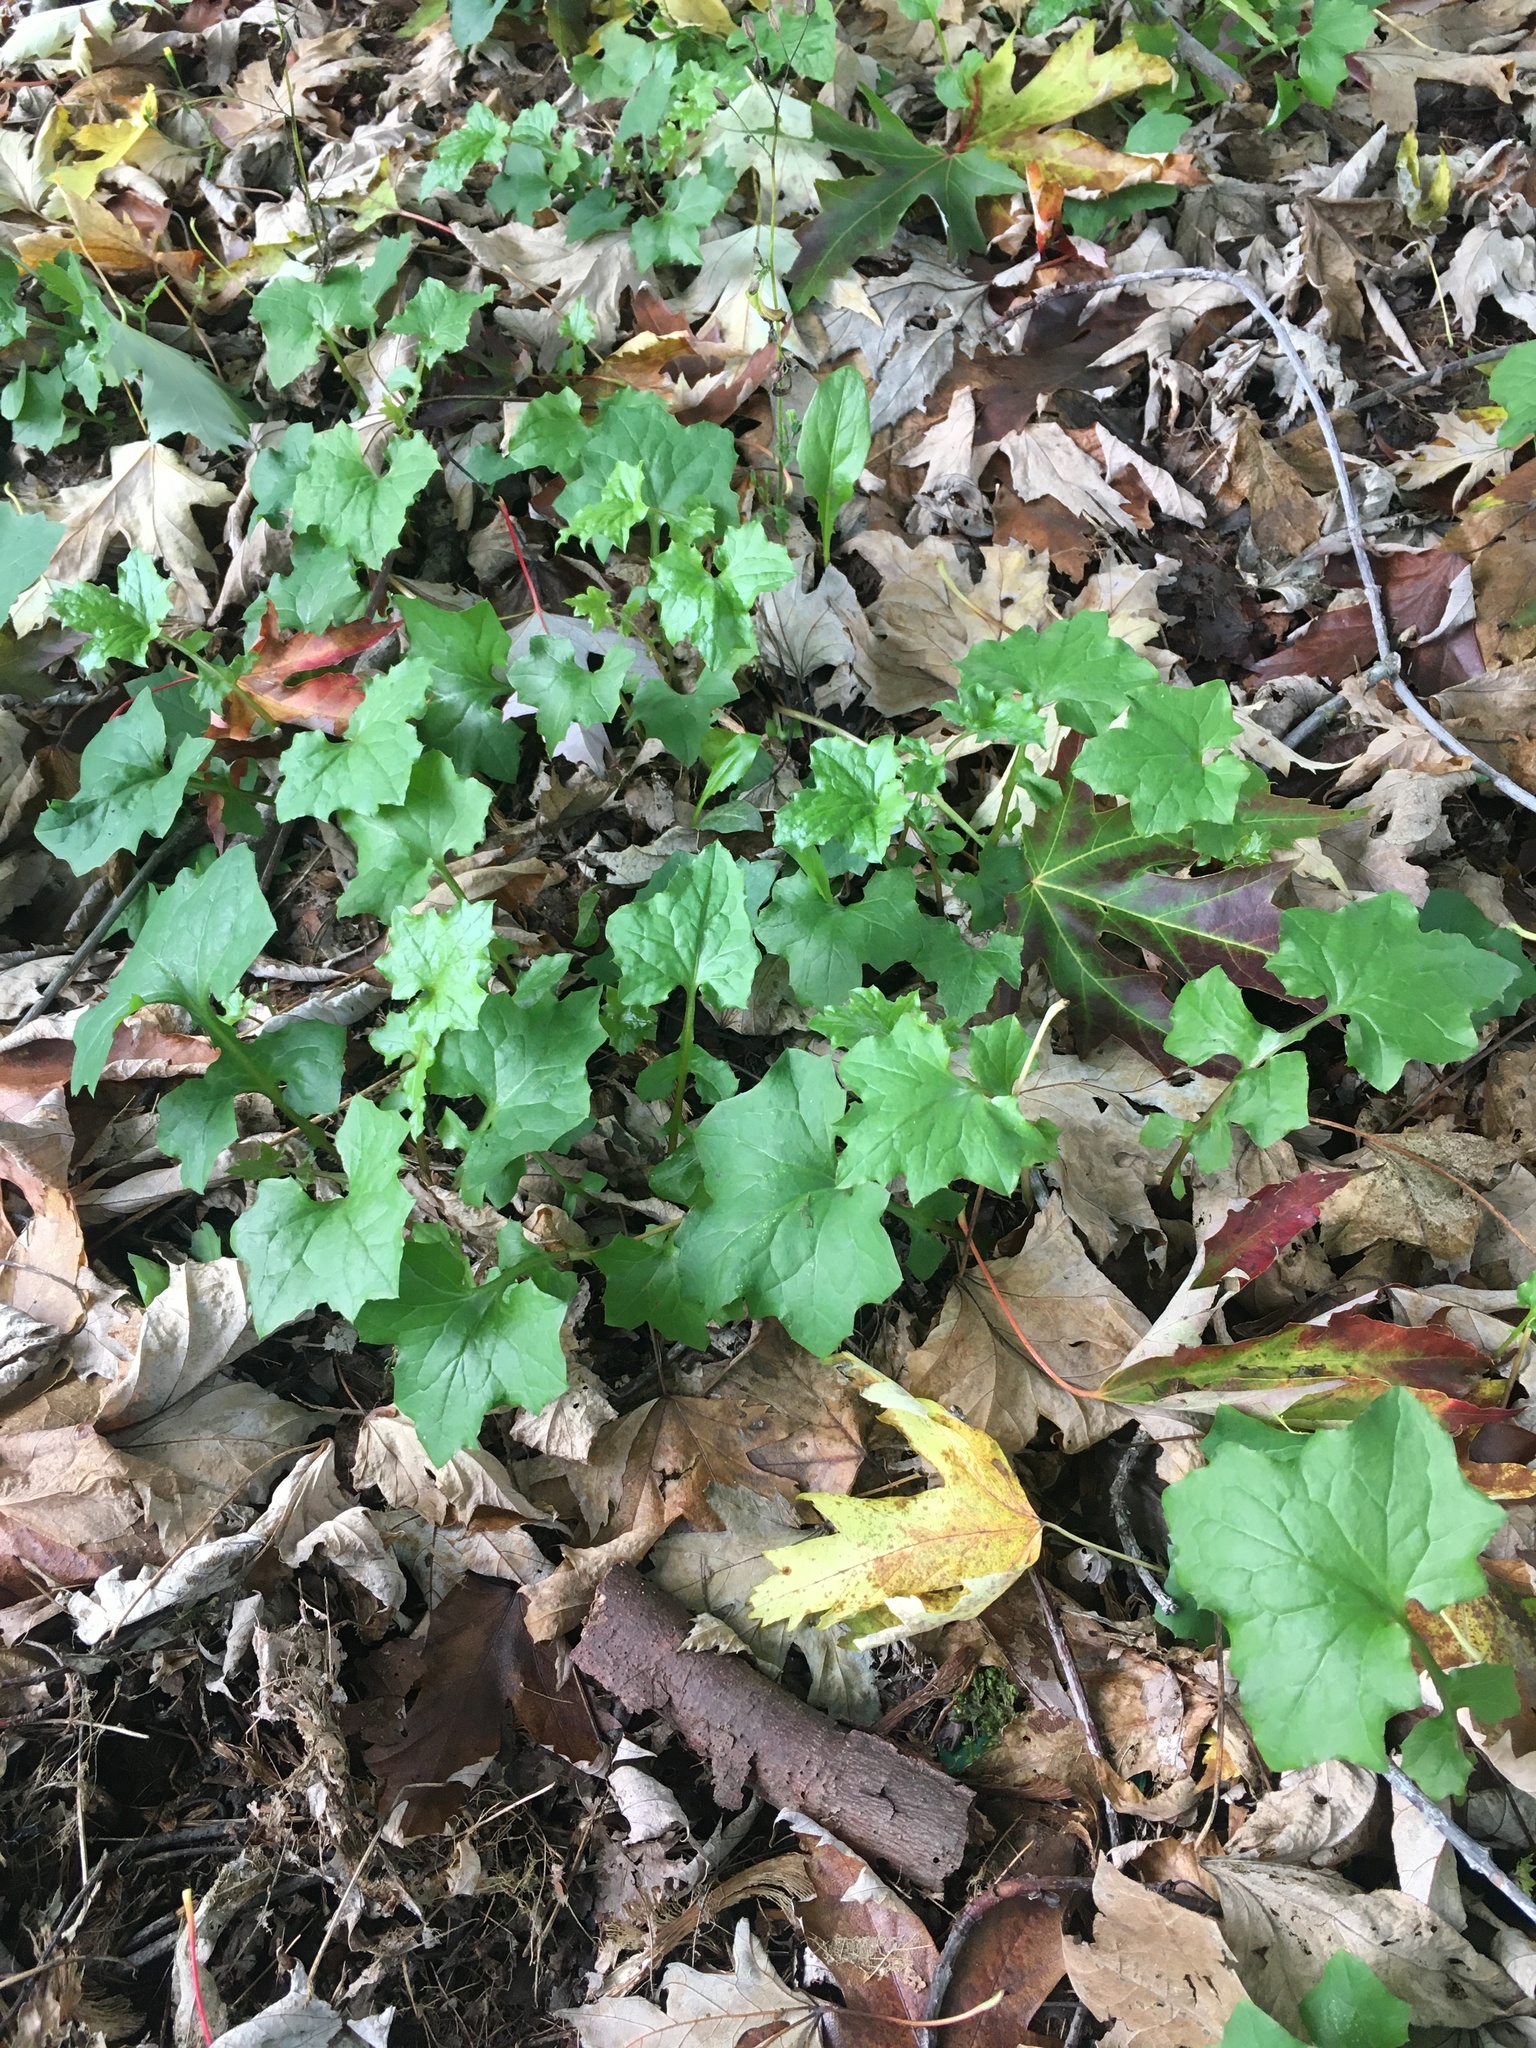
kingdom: Plantae
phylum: Tracheophyta
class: Magnoliopsida
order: Asterales
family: Asteraceae
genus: Mycelis
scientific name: Mycelis muralis
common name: Wall lettuce
